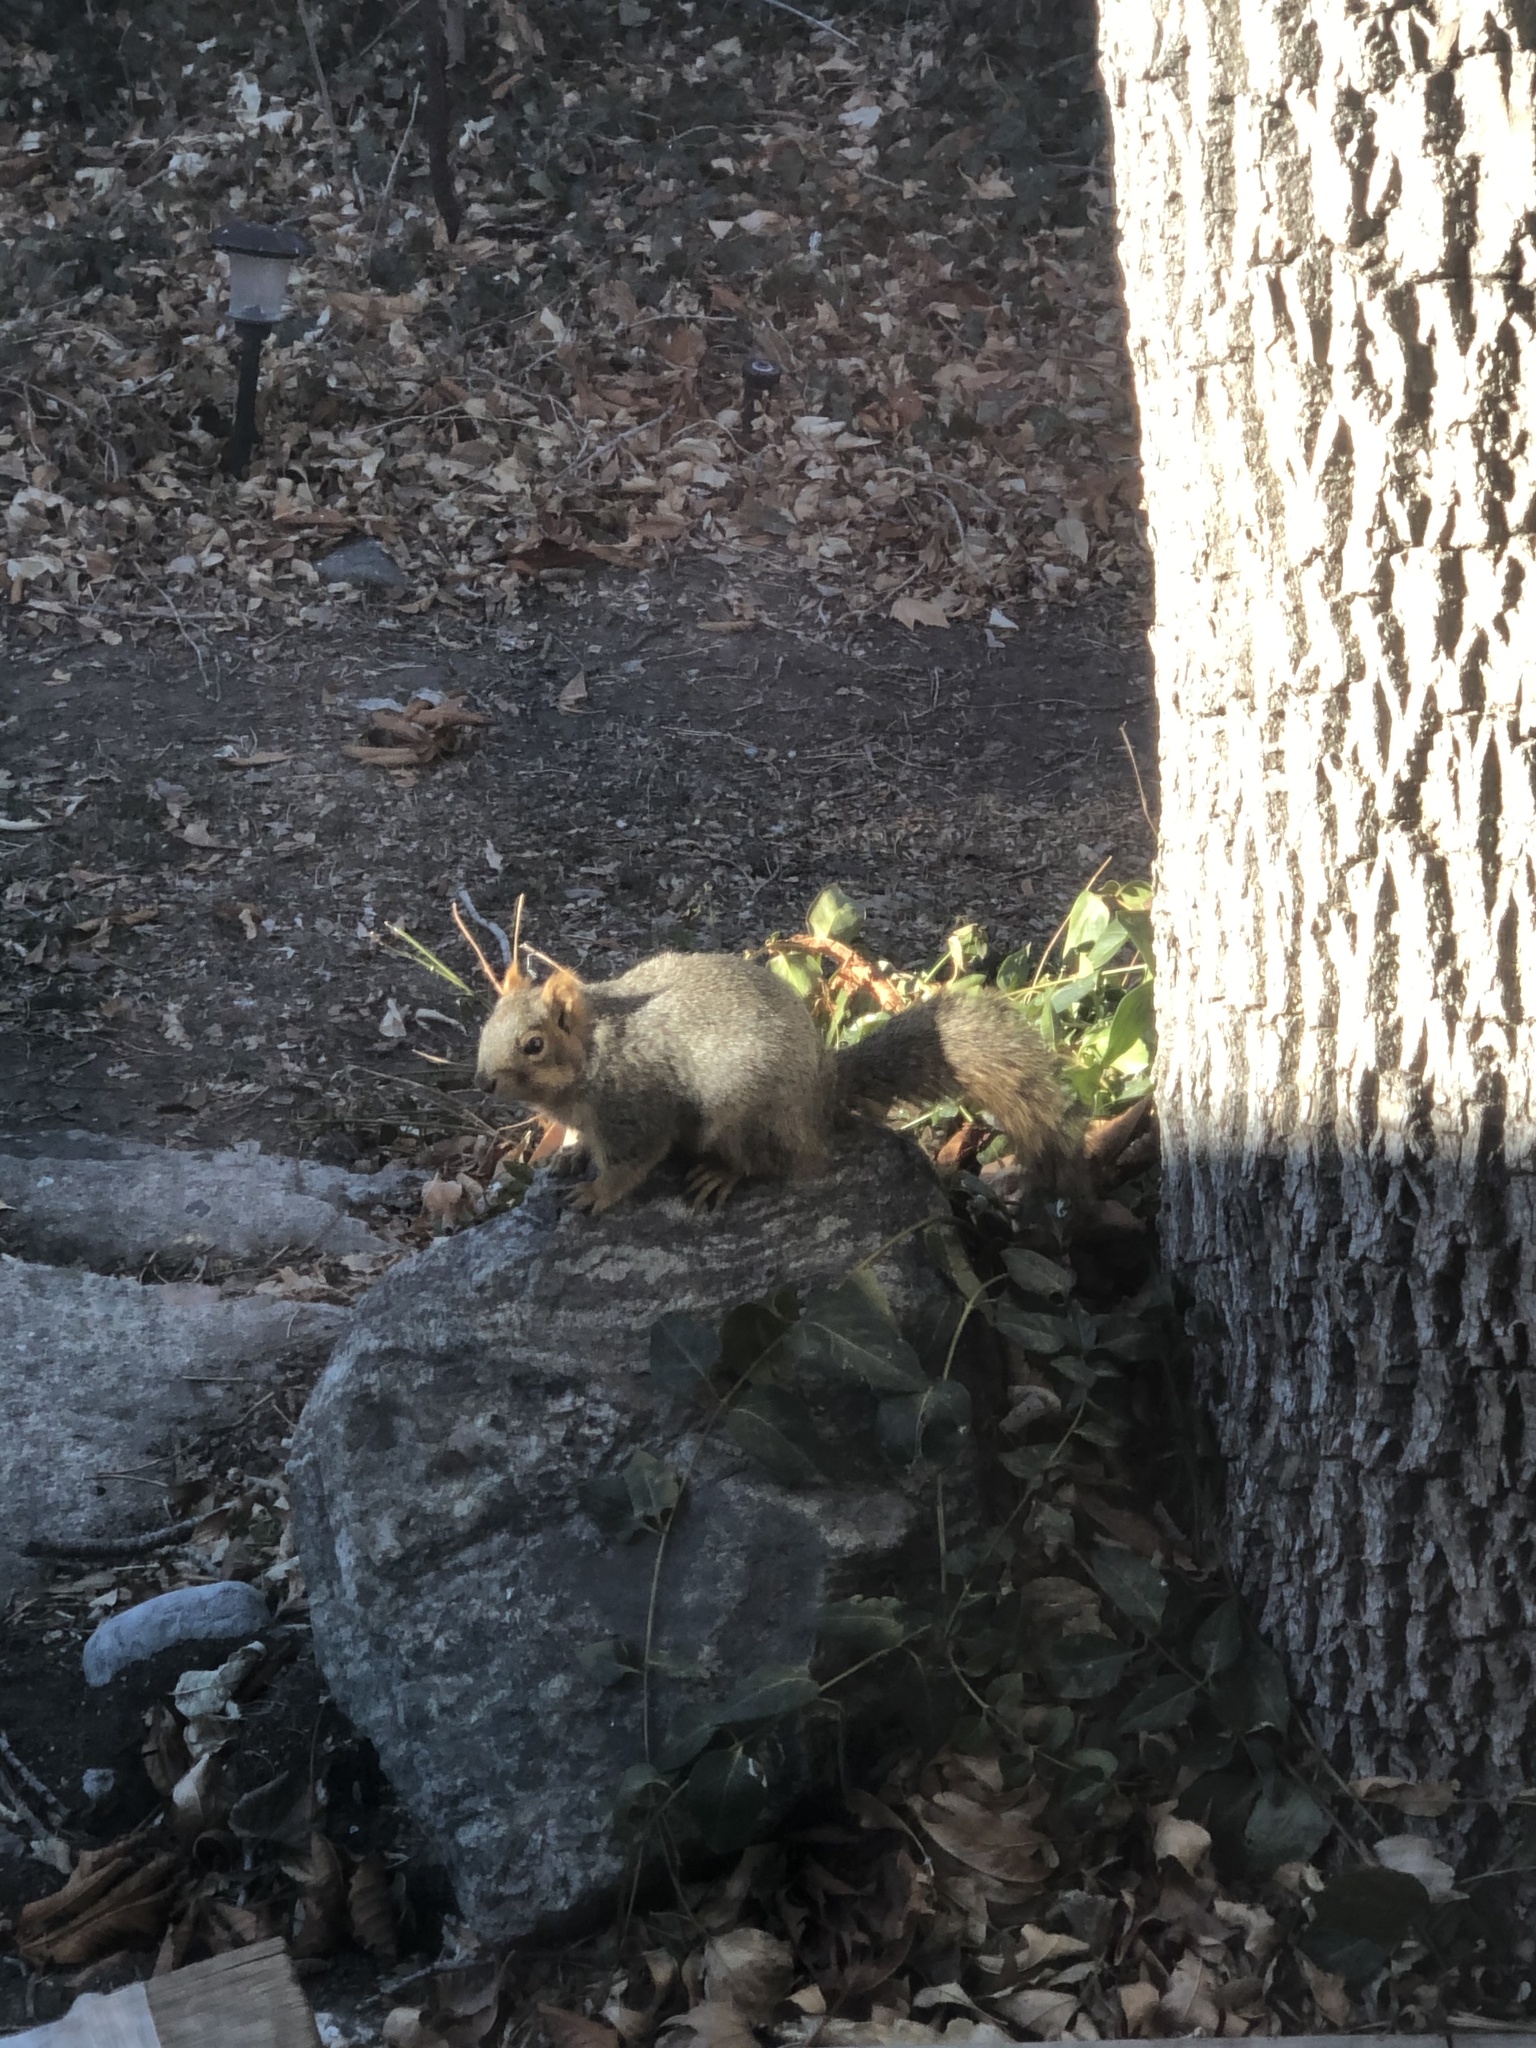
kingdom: Animalia
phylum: Chordata
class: Mammalia
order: Rodentia
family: Sciuridae
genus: Sciurus
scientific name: Sciurus niger
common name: Fox squirrel
